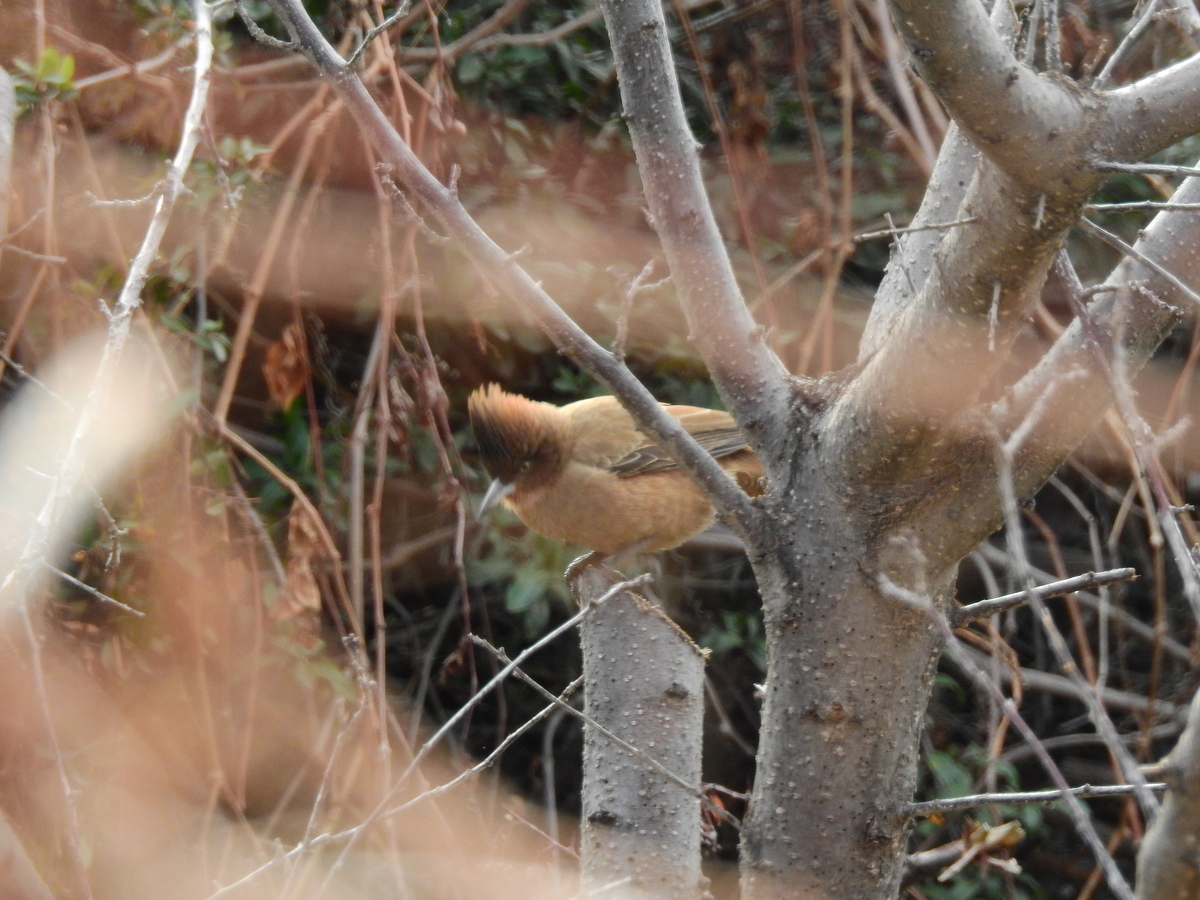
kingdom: Animalia
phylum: Chordata
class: Aves
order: Passeriformes
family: Furnariidae
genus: Pseudoseisura
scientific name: Pseudoseisura lophotes
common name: Brown cacholote
